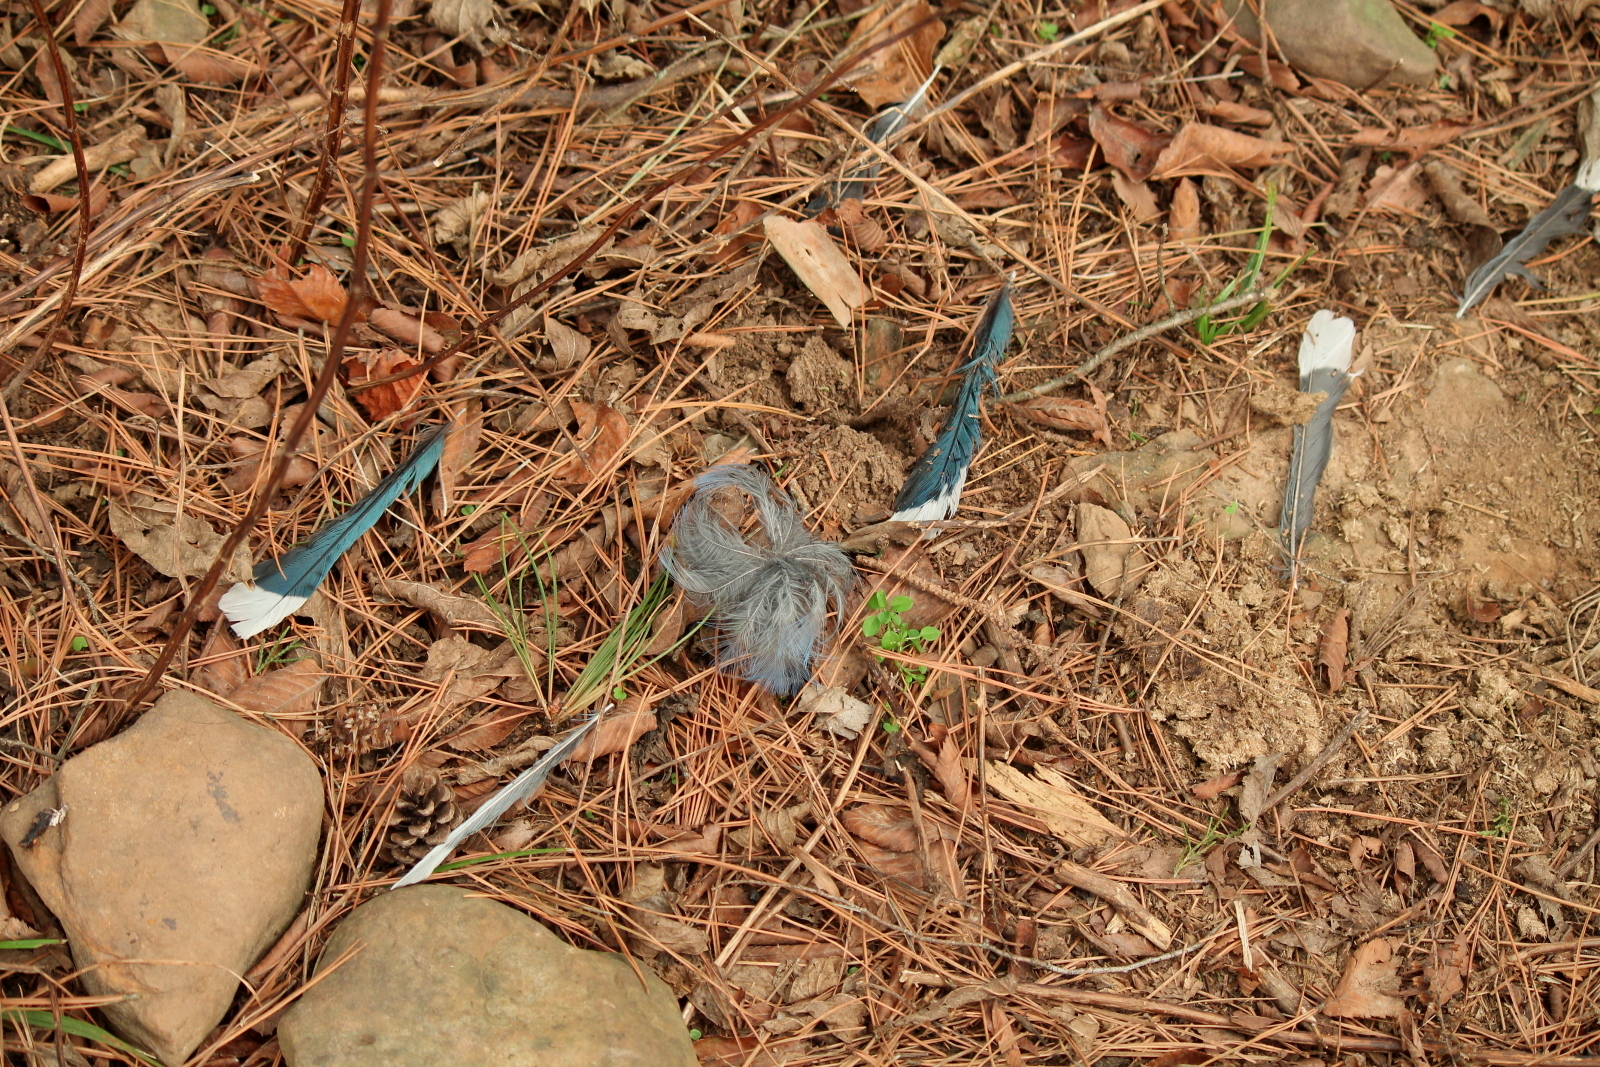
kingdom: Animalia
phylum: Chordata
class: Aves
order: Passeriformes
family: Corvidae
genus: Cyanocitta
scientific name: Cyanocitta cristata
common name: Blue jay
